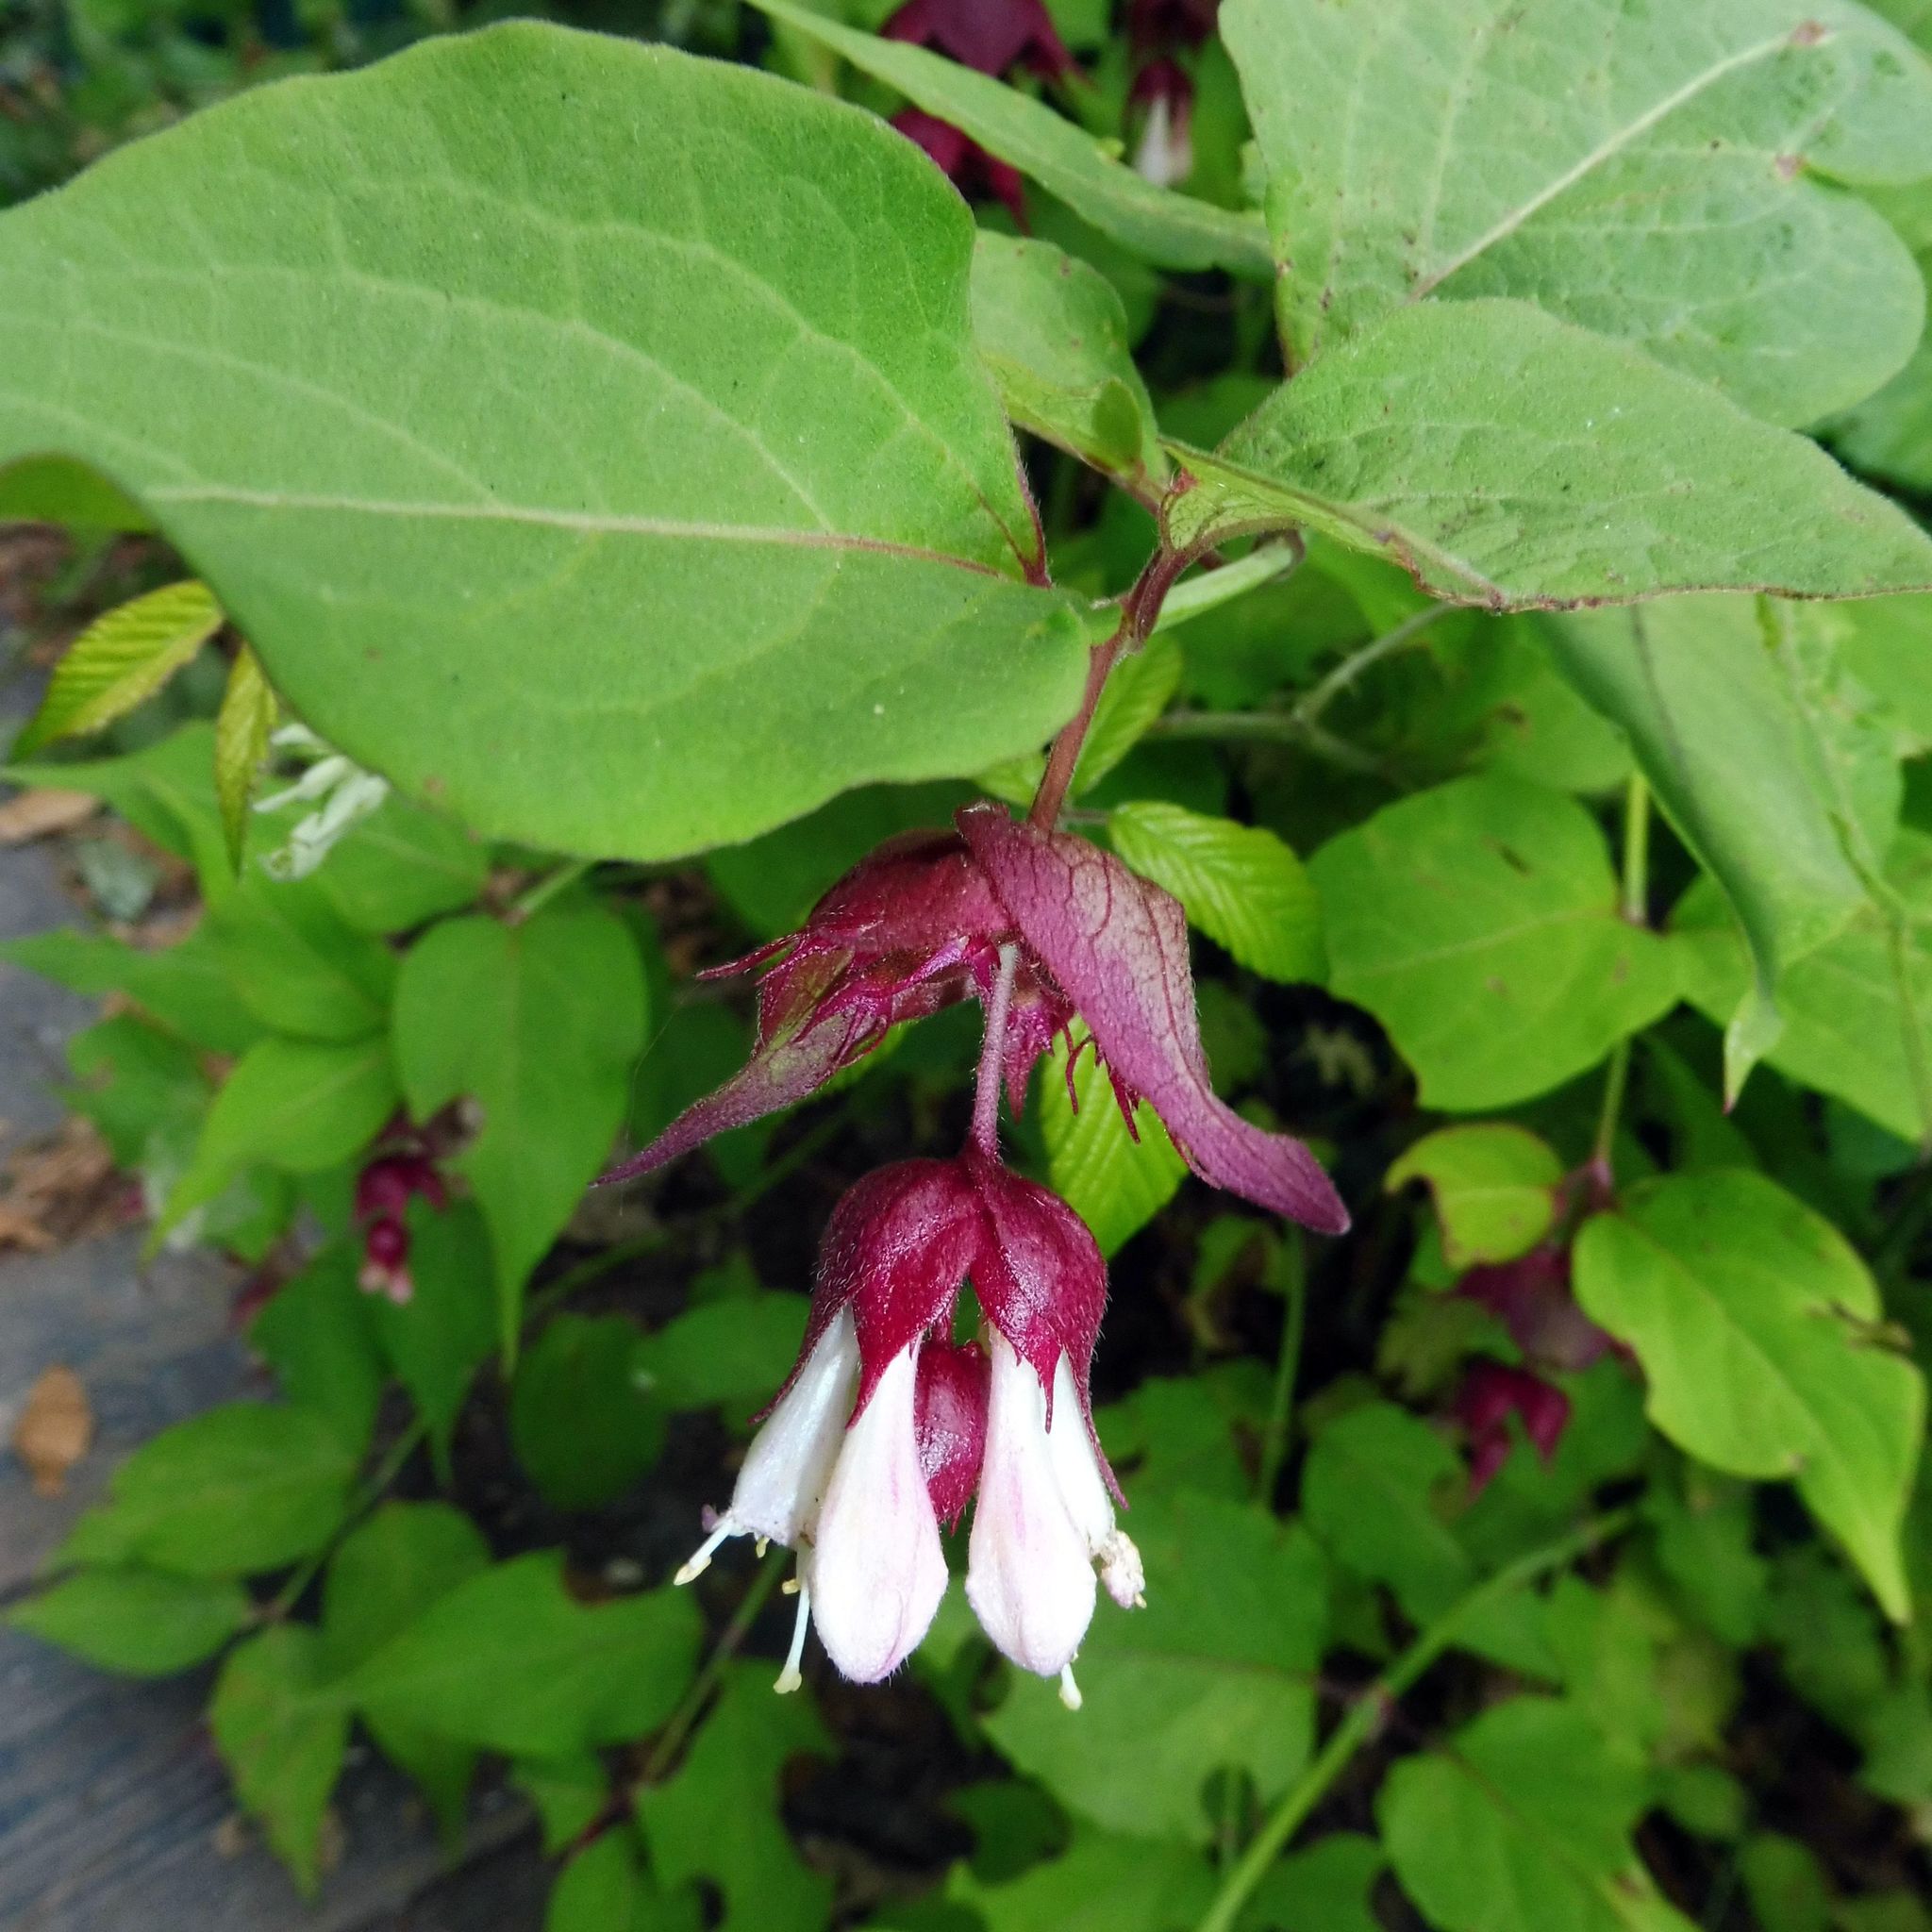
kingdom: Plantae
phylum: Tracheophyta
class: Magnoliopsida
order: Dipsacales
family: Caprifoliaceae
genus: Leycesteria
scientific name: Leycesteria formosa
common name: Himalayan honeysuckle
